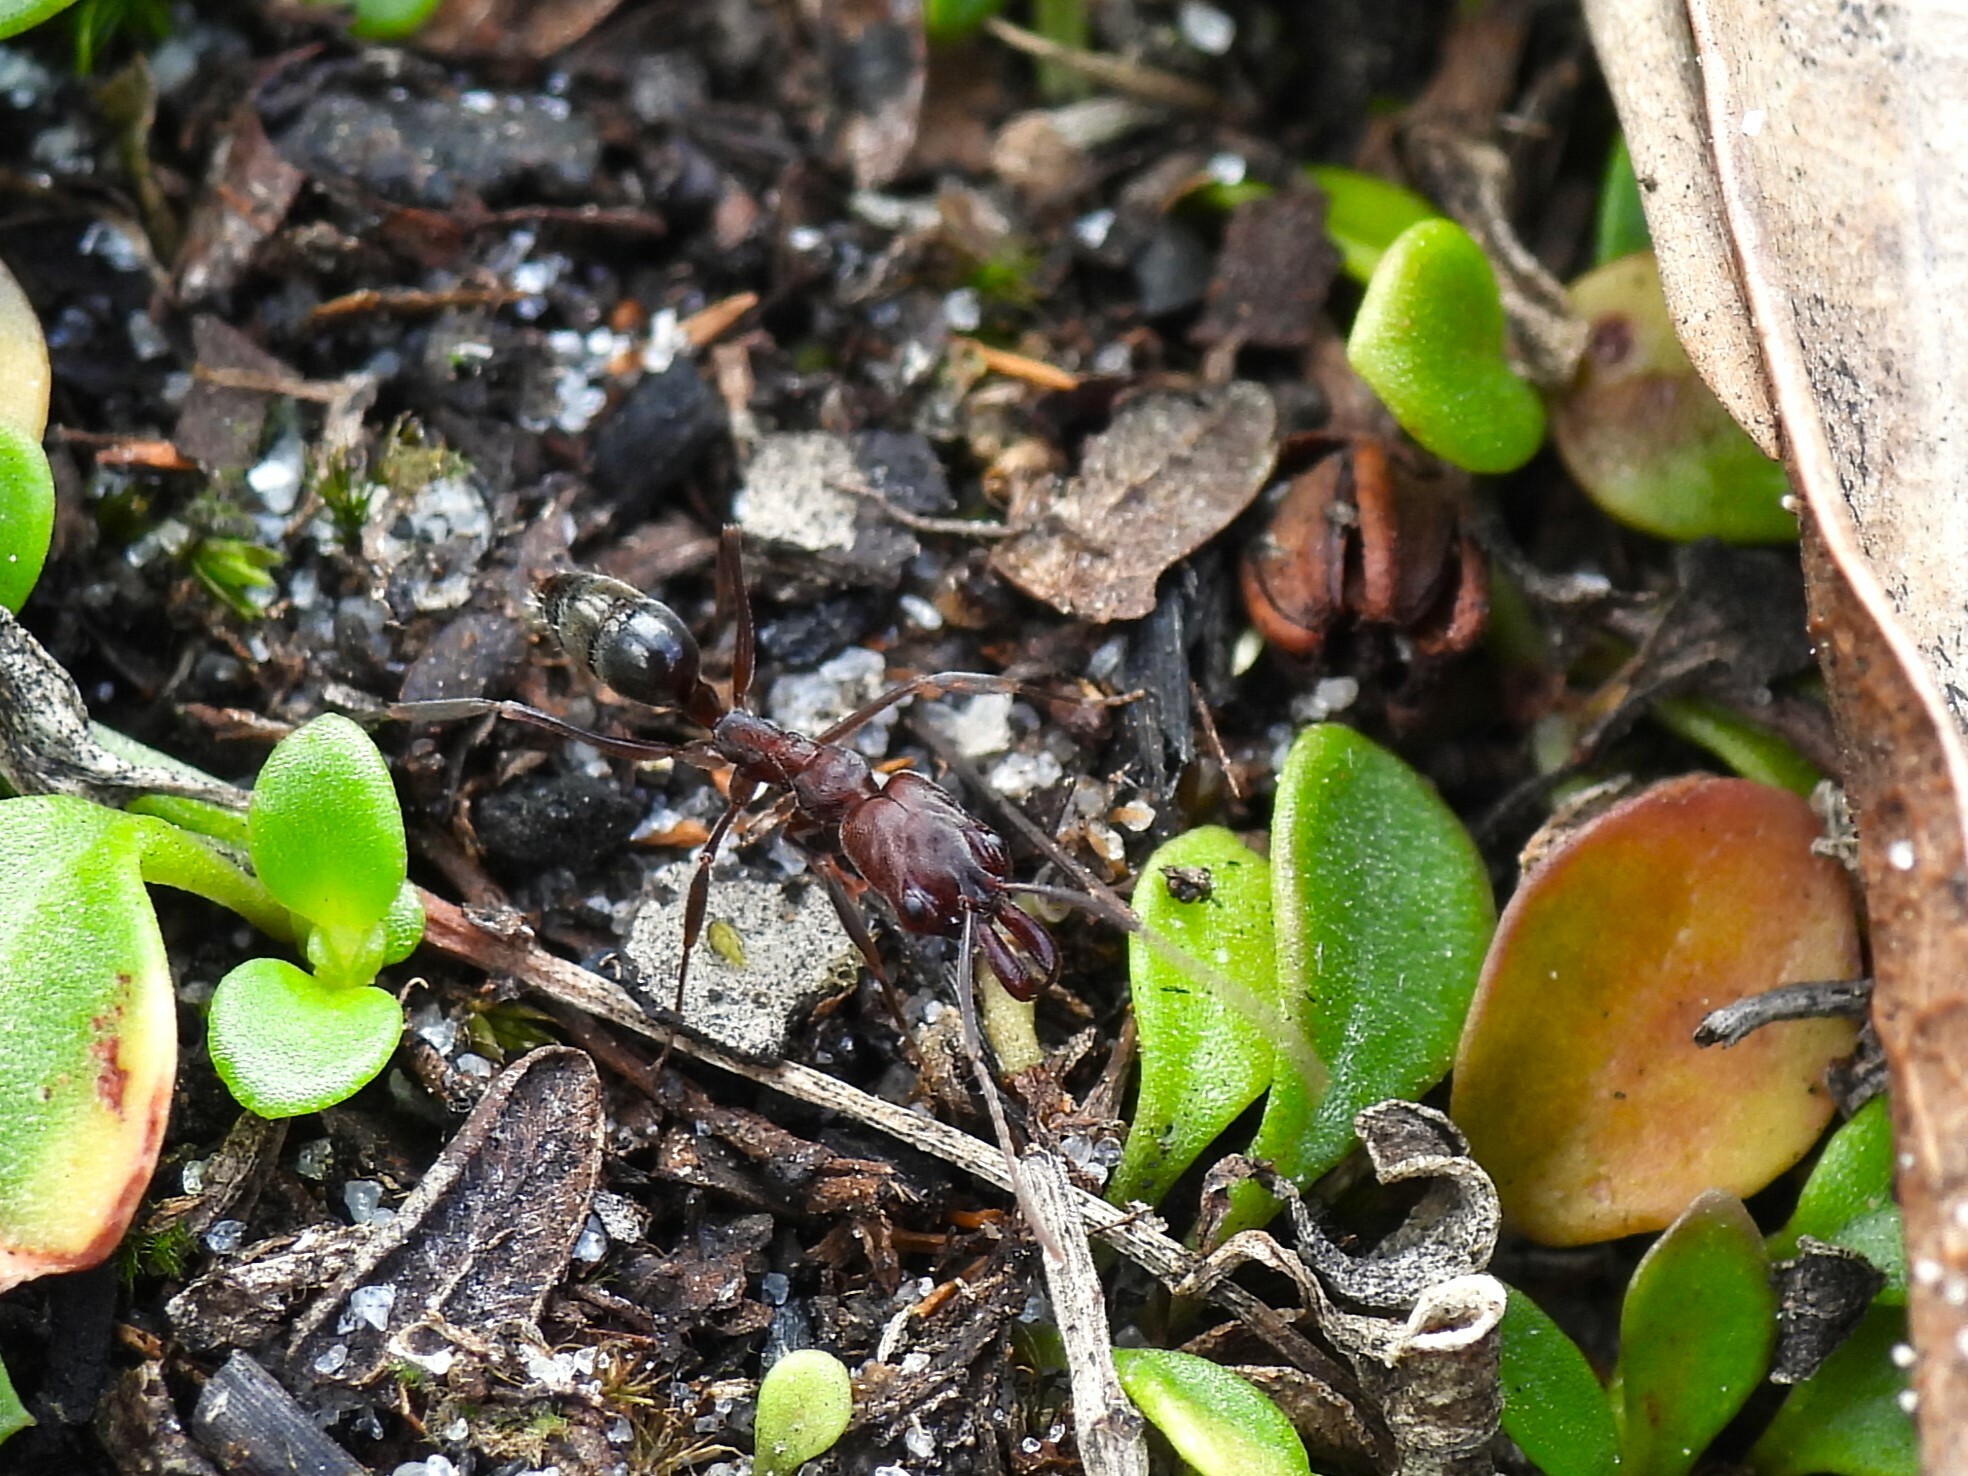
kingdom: Animalia
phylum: Arthropoda
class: Insecta
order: Hymenoptera
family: Formicidae
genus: Odontomachus
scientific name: Odontomachus brunneus
